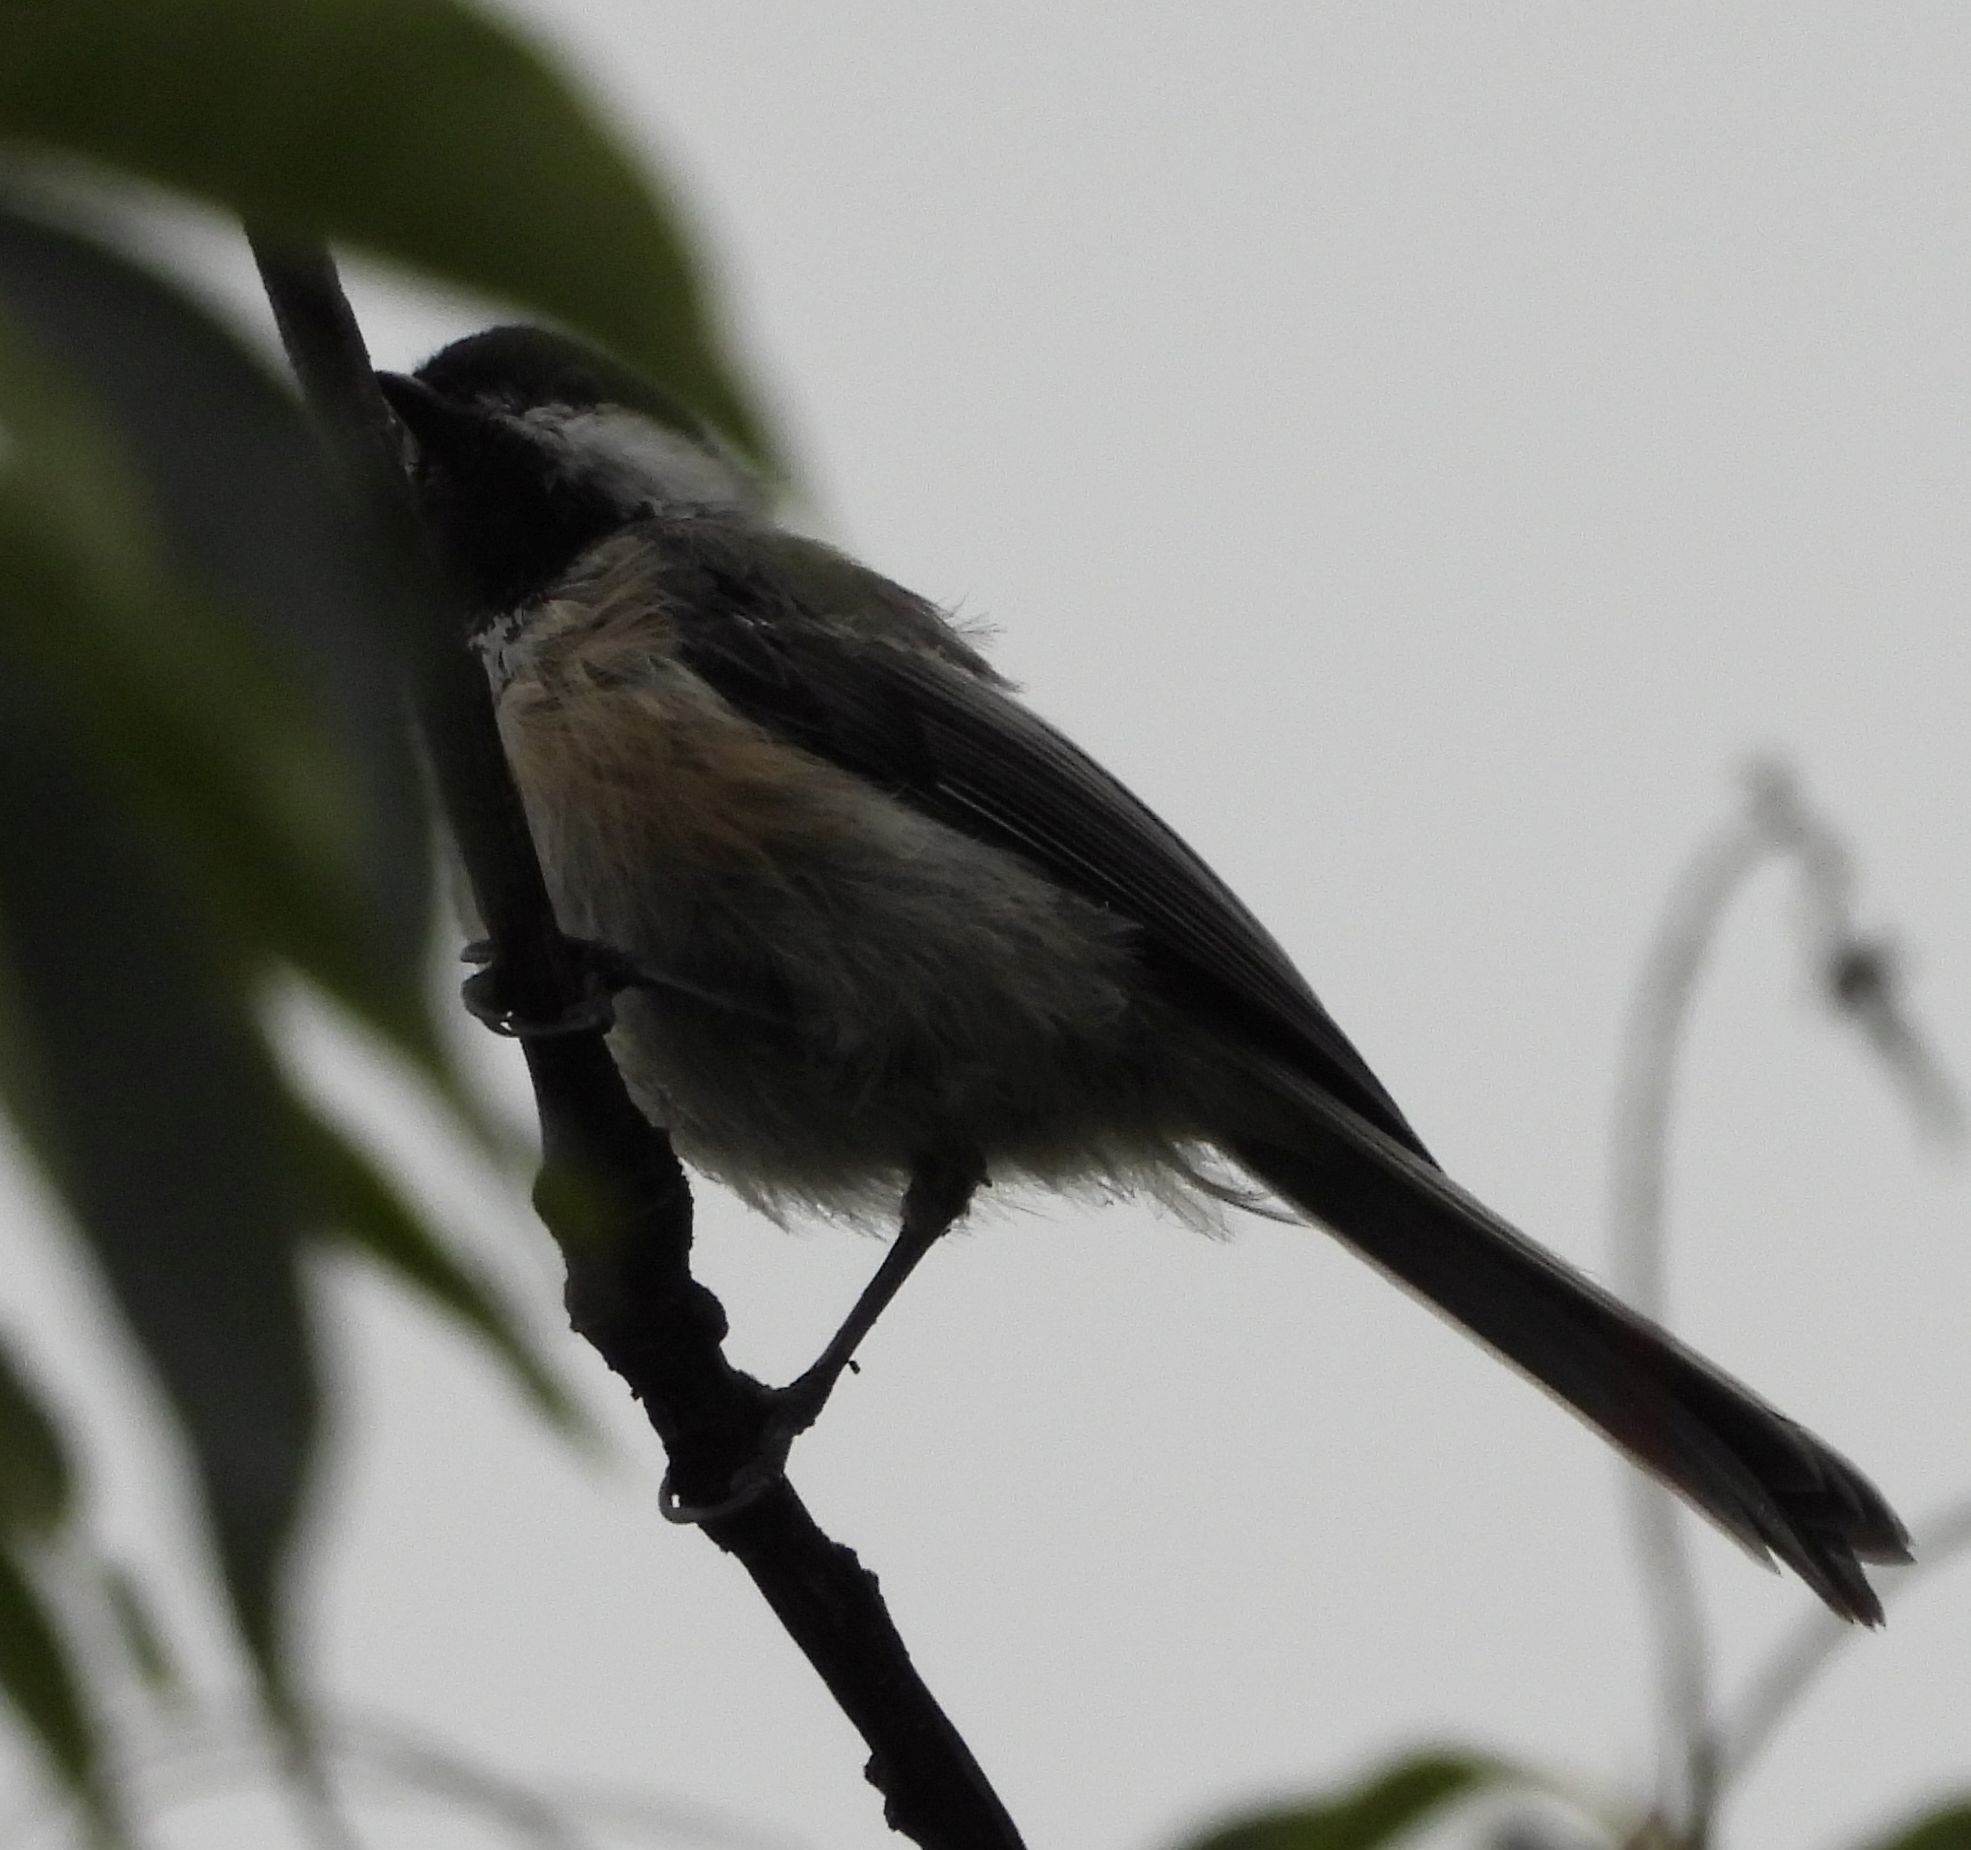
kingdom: Animalia
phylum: Chordata
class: Aves
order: Passeriformes
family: Paridae
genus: Poecile
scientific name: Poecile atricapillus
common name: Black-capped chickadee
